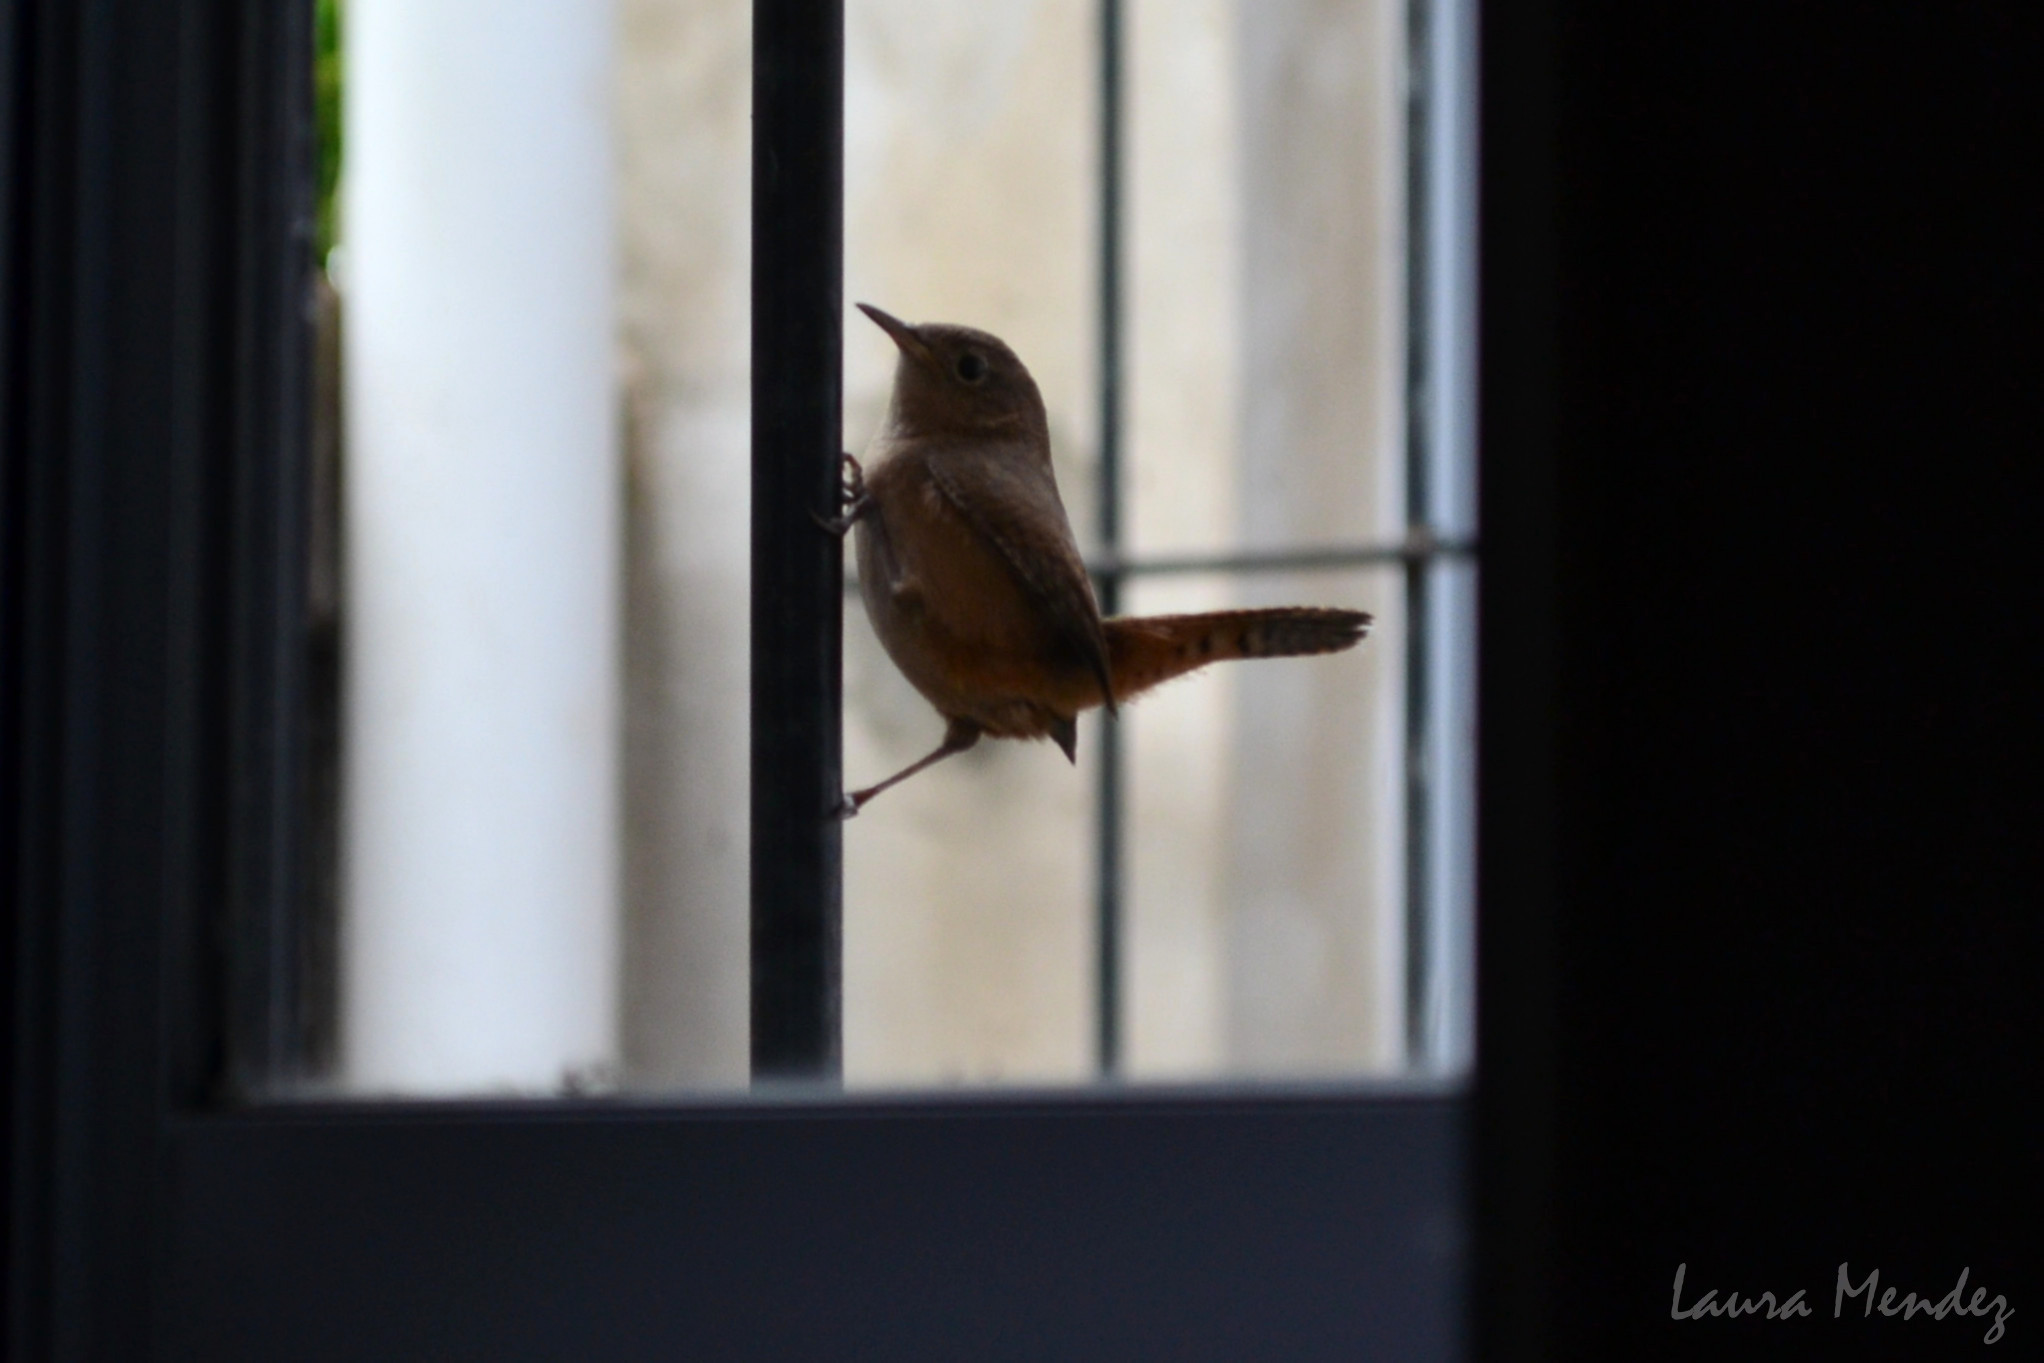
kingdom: Animalia
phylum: Chordata
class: Aves
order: Passeriformes
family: Troglodytidae
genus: Troglodytes
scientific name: Troglodytes aedon
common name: House wren
